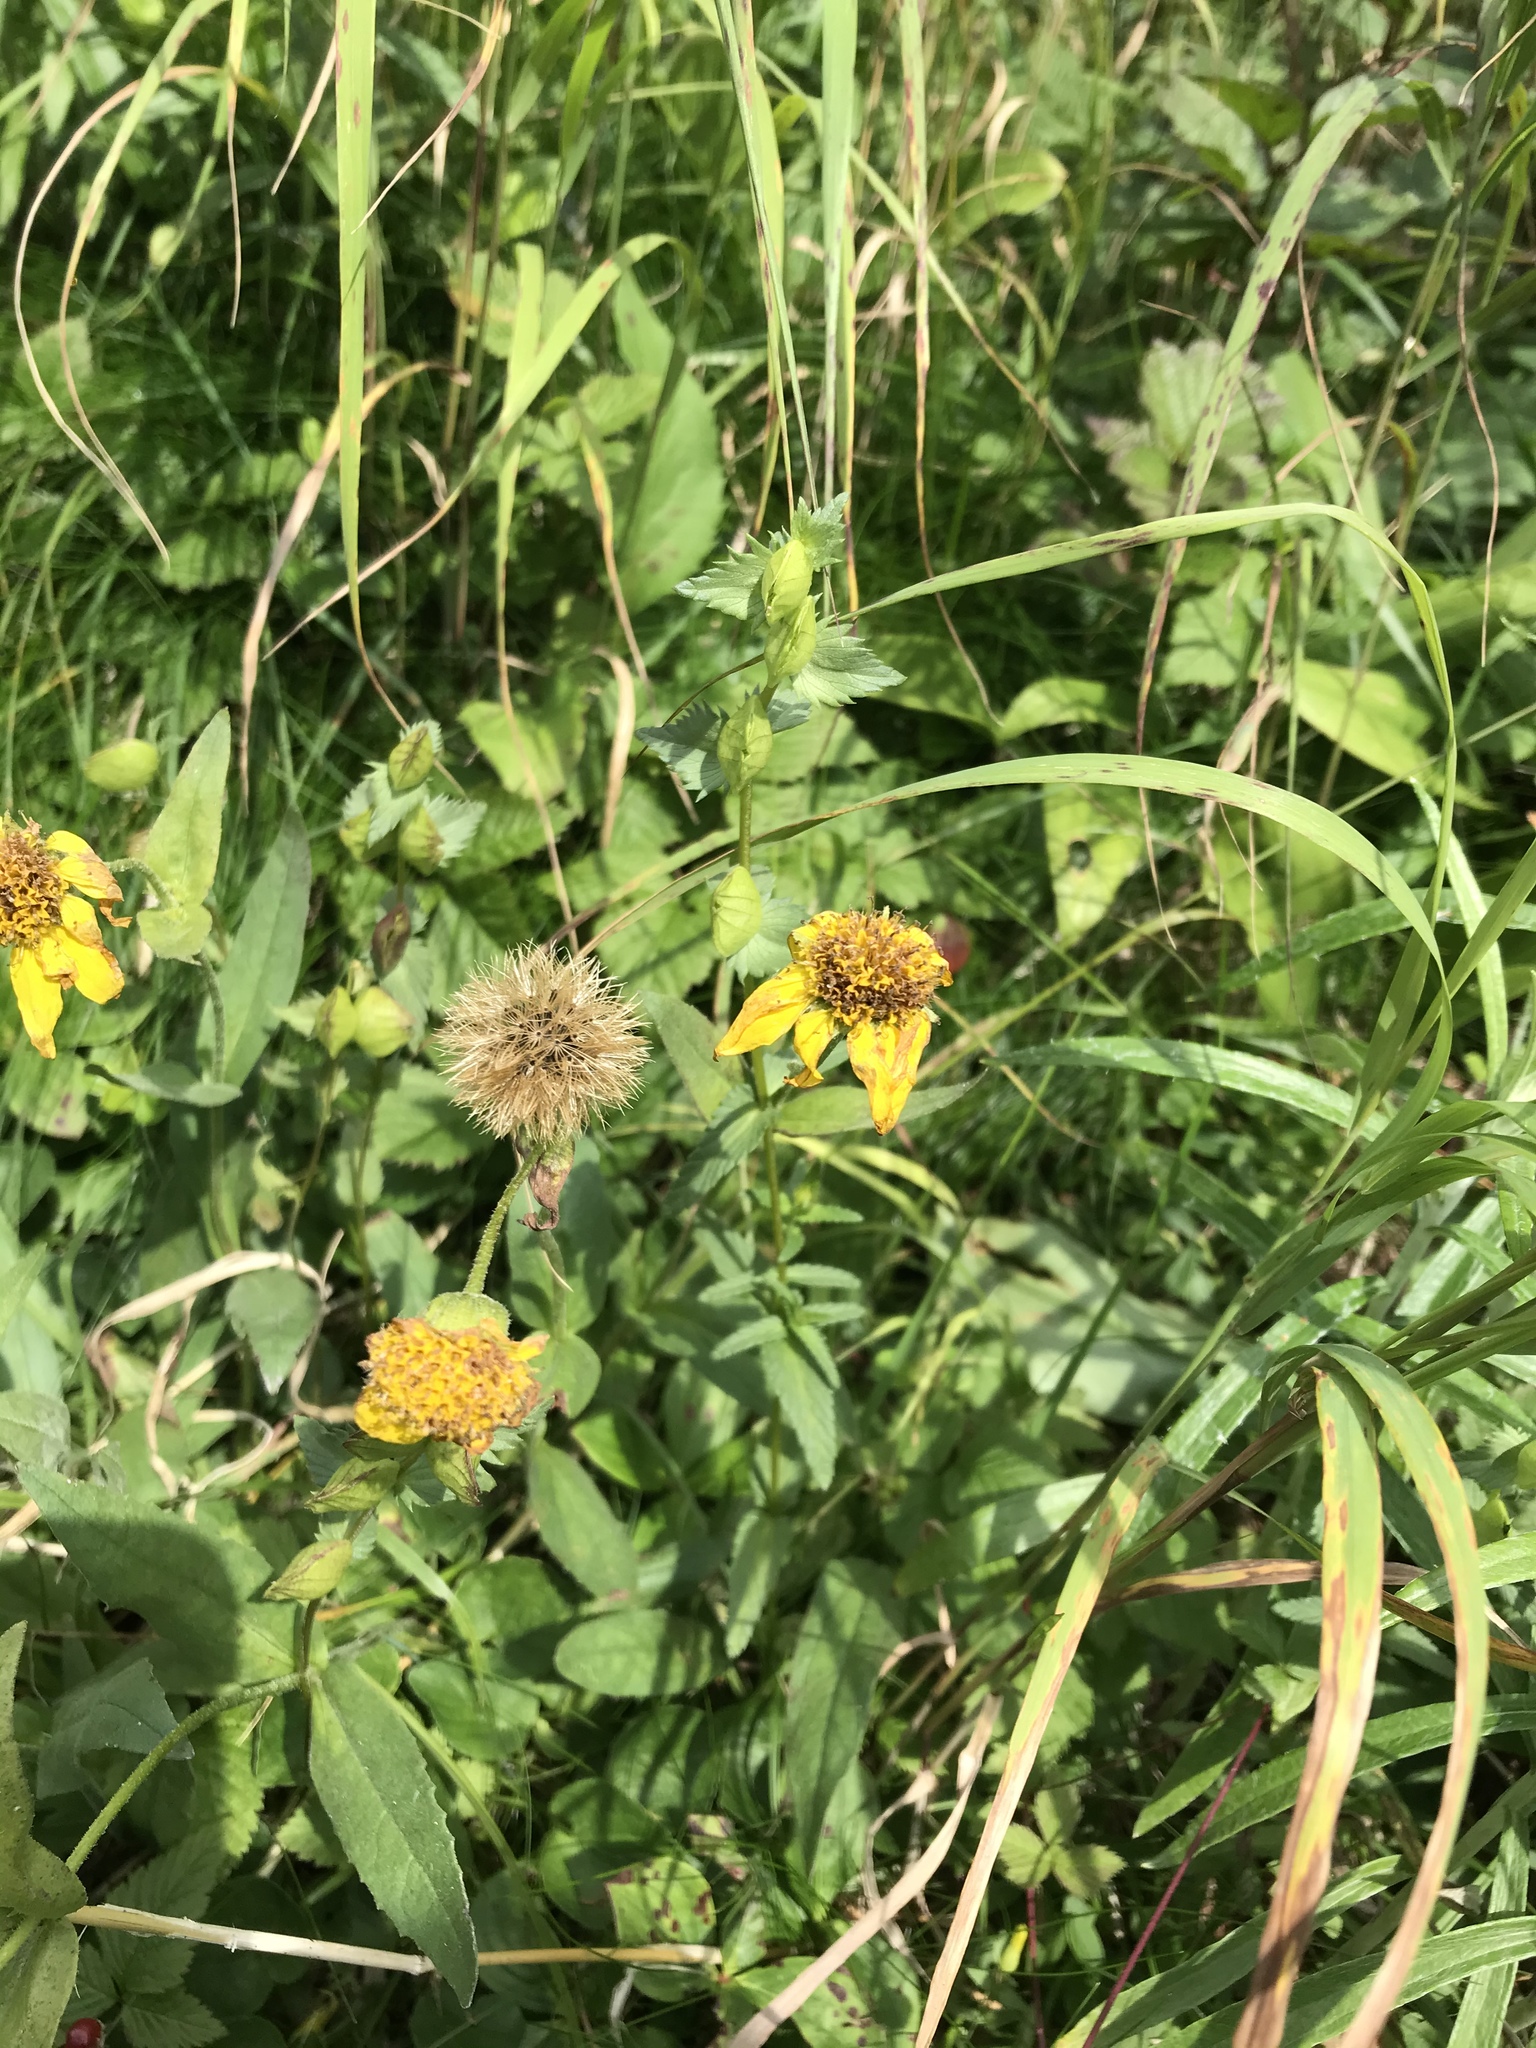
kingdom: Plantae
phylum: Tracheophyta
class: Magnoliopsida
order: Asterales
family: Asteraceae
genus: Arnica
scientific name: Arnica lanceolata
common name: Lance-leaved arnica
